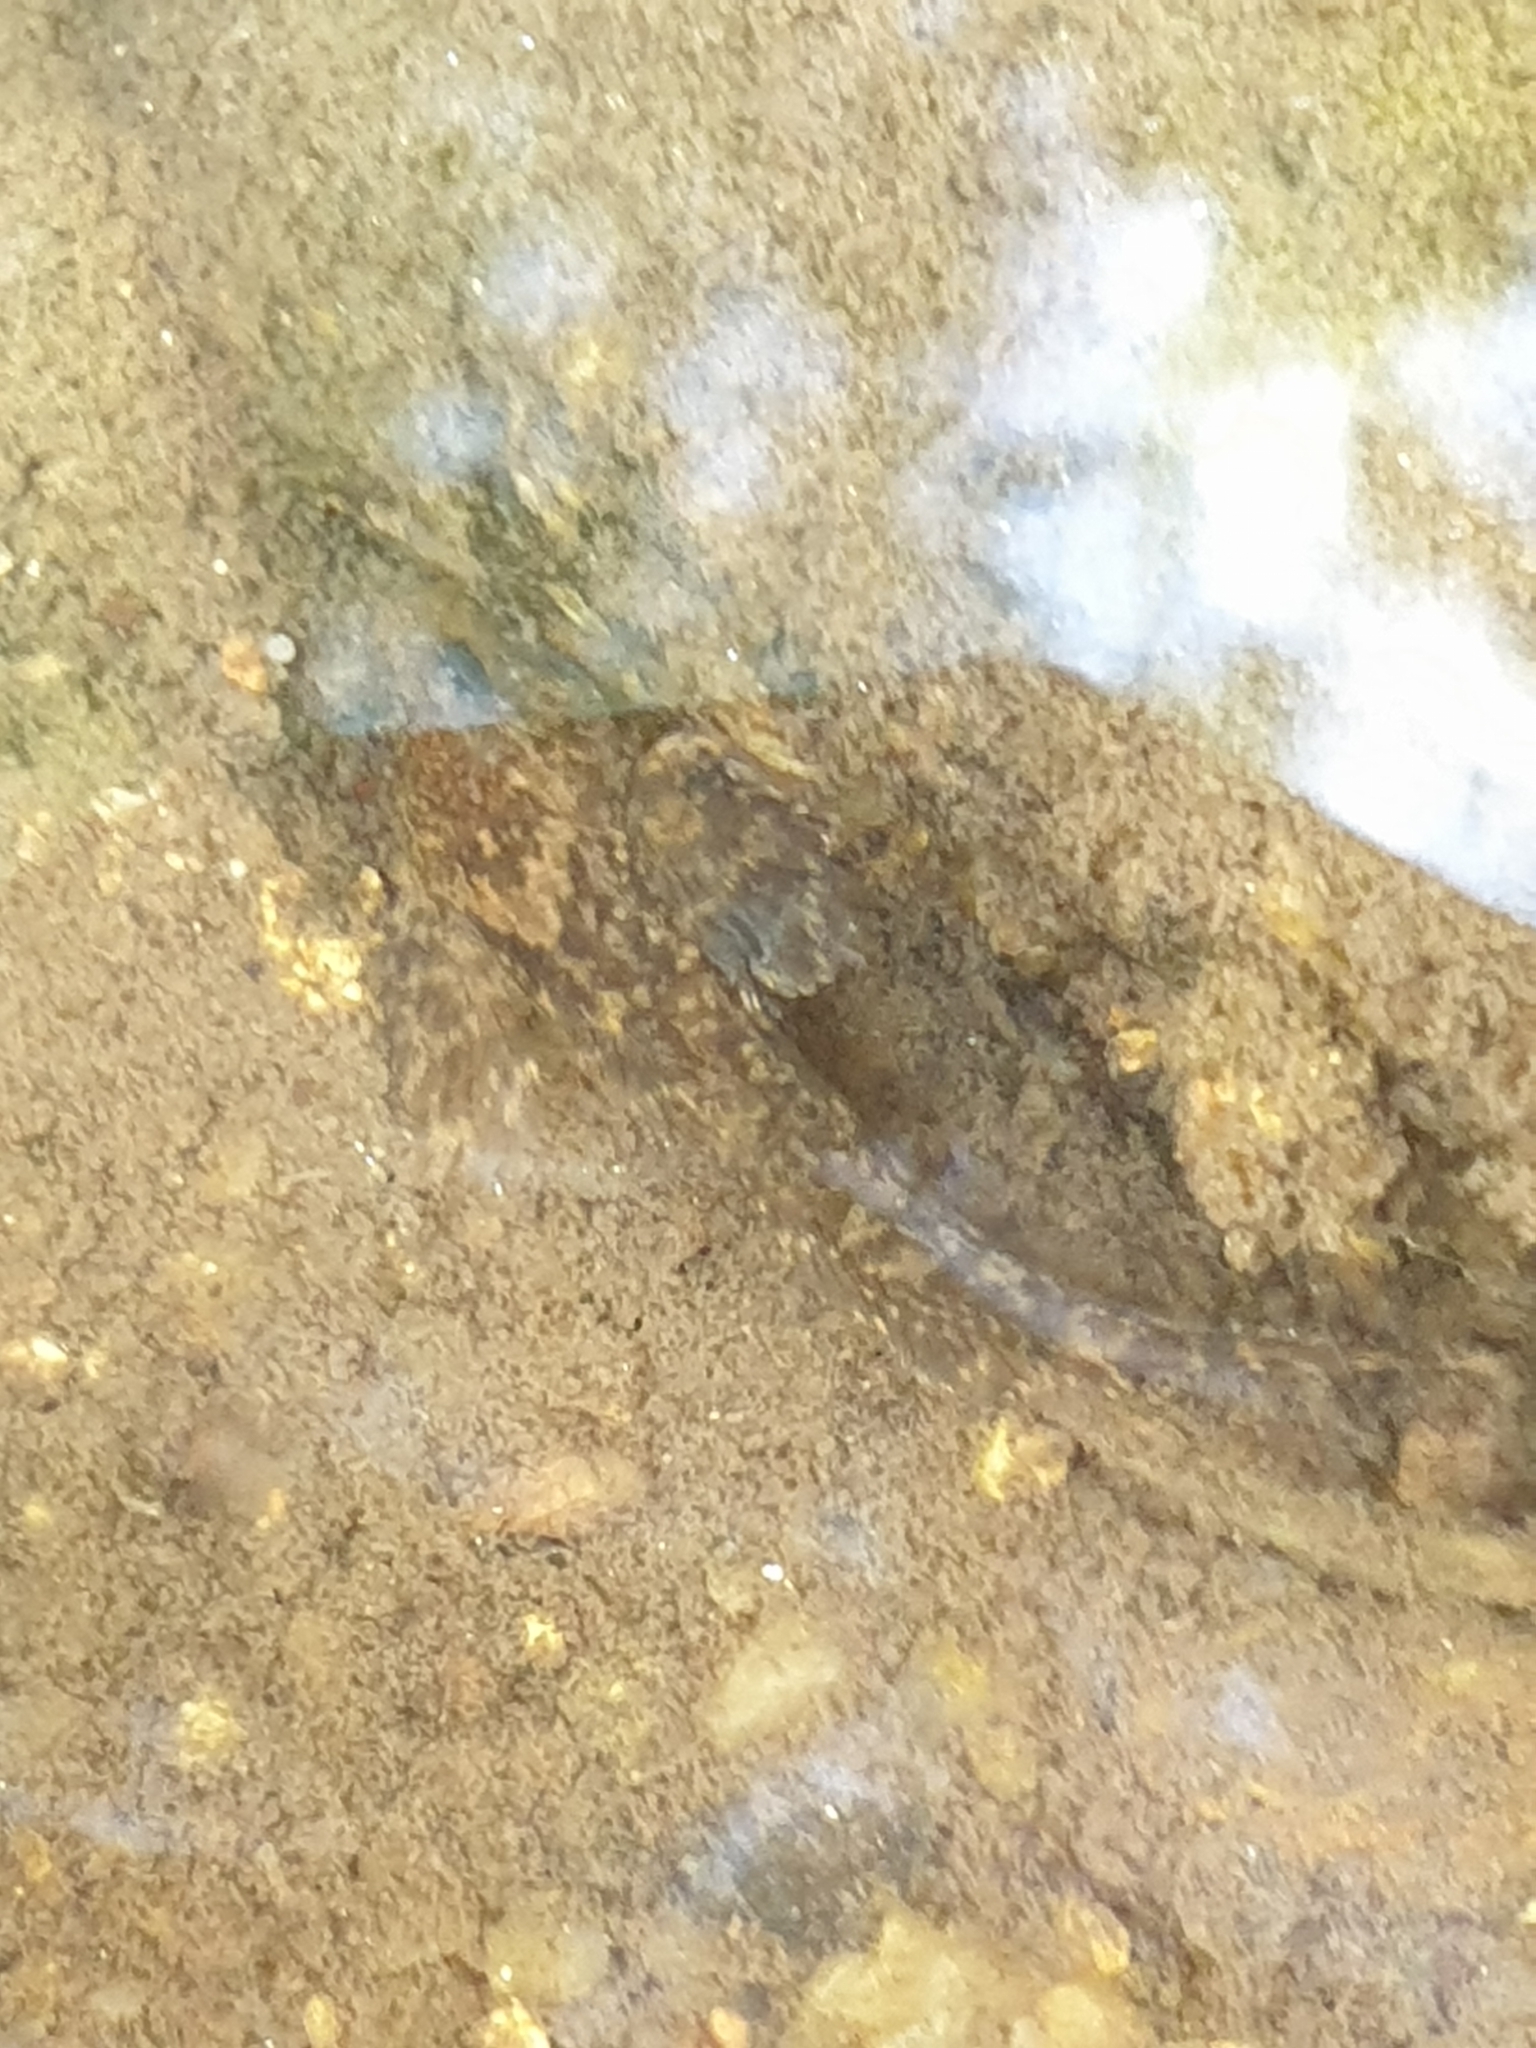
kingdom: Animalia
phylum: Chordata
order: Scorpaeniformes
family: Cottidae
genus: Cottus
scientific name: Cottus gobio
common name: Bullhead
